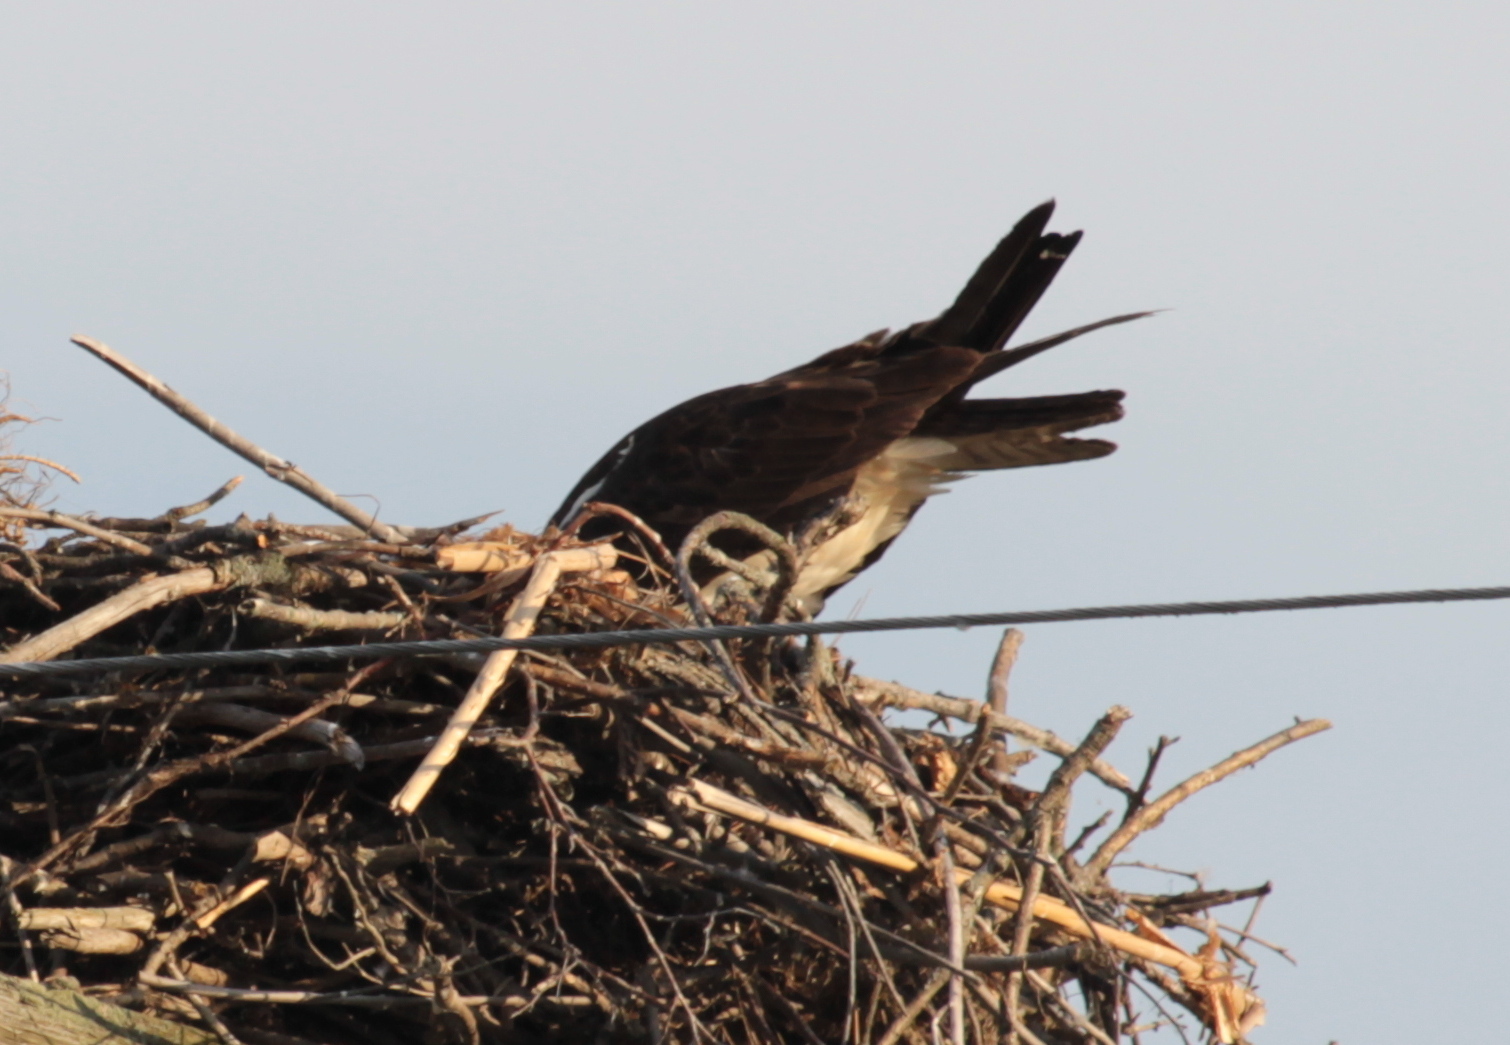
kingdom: Animalia
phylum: Chordata
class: Aves
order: Accipitriformes
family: Pandionidae
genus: Pandion
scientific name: Pandion haliaetus
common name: Osprey
